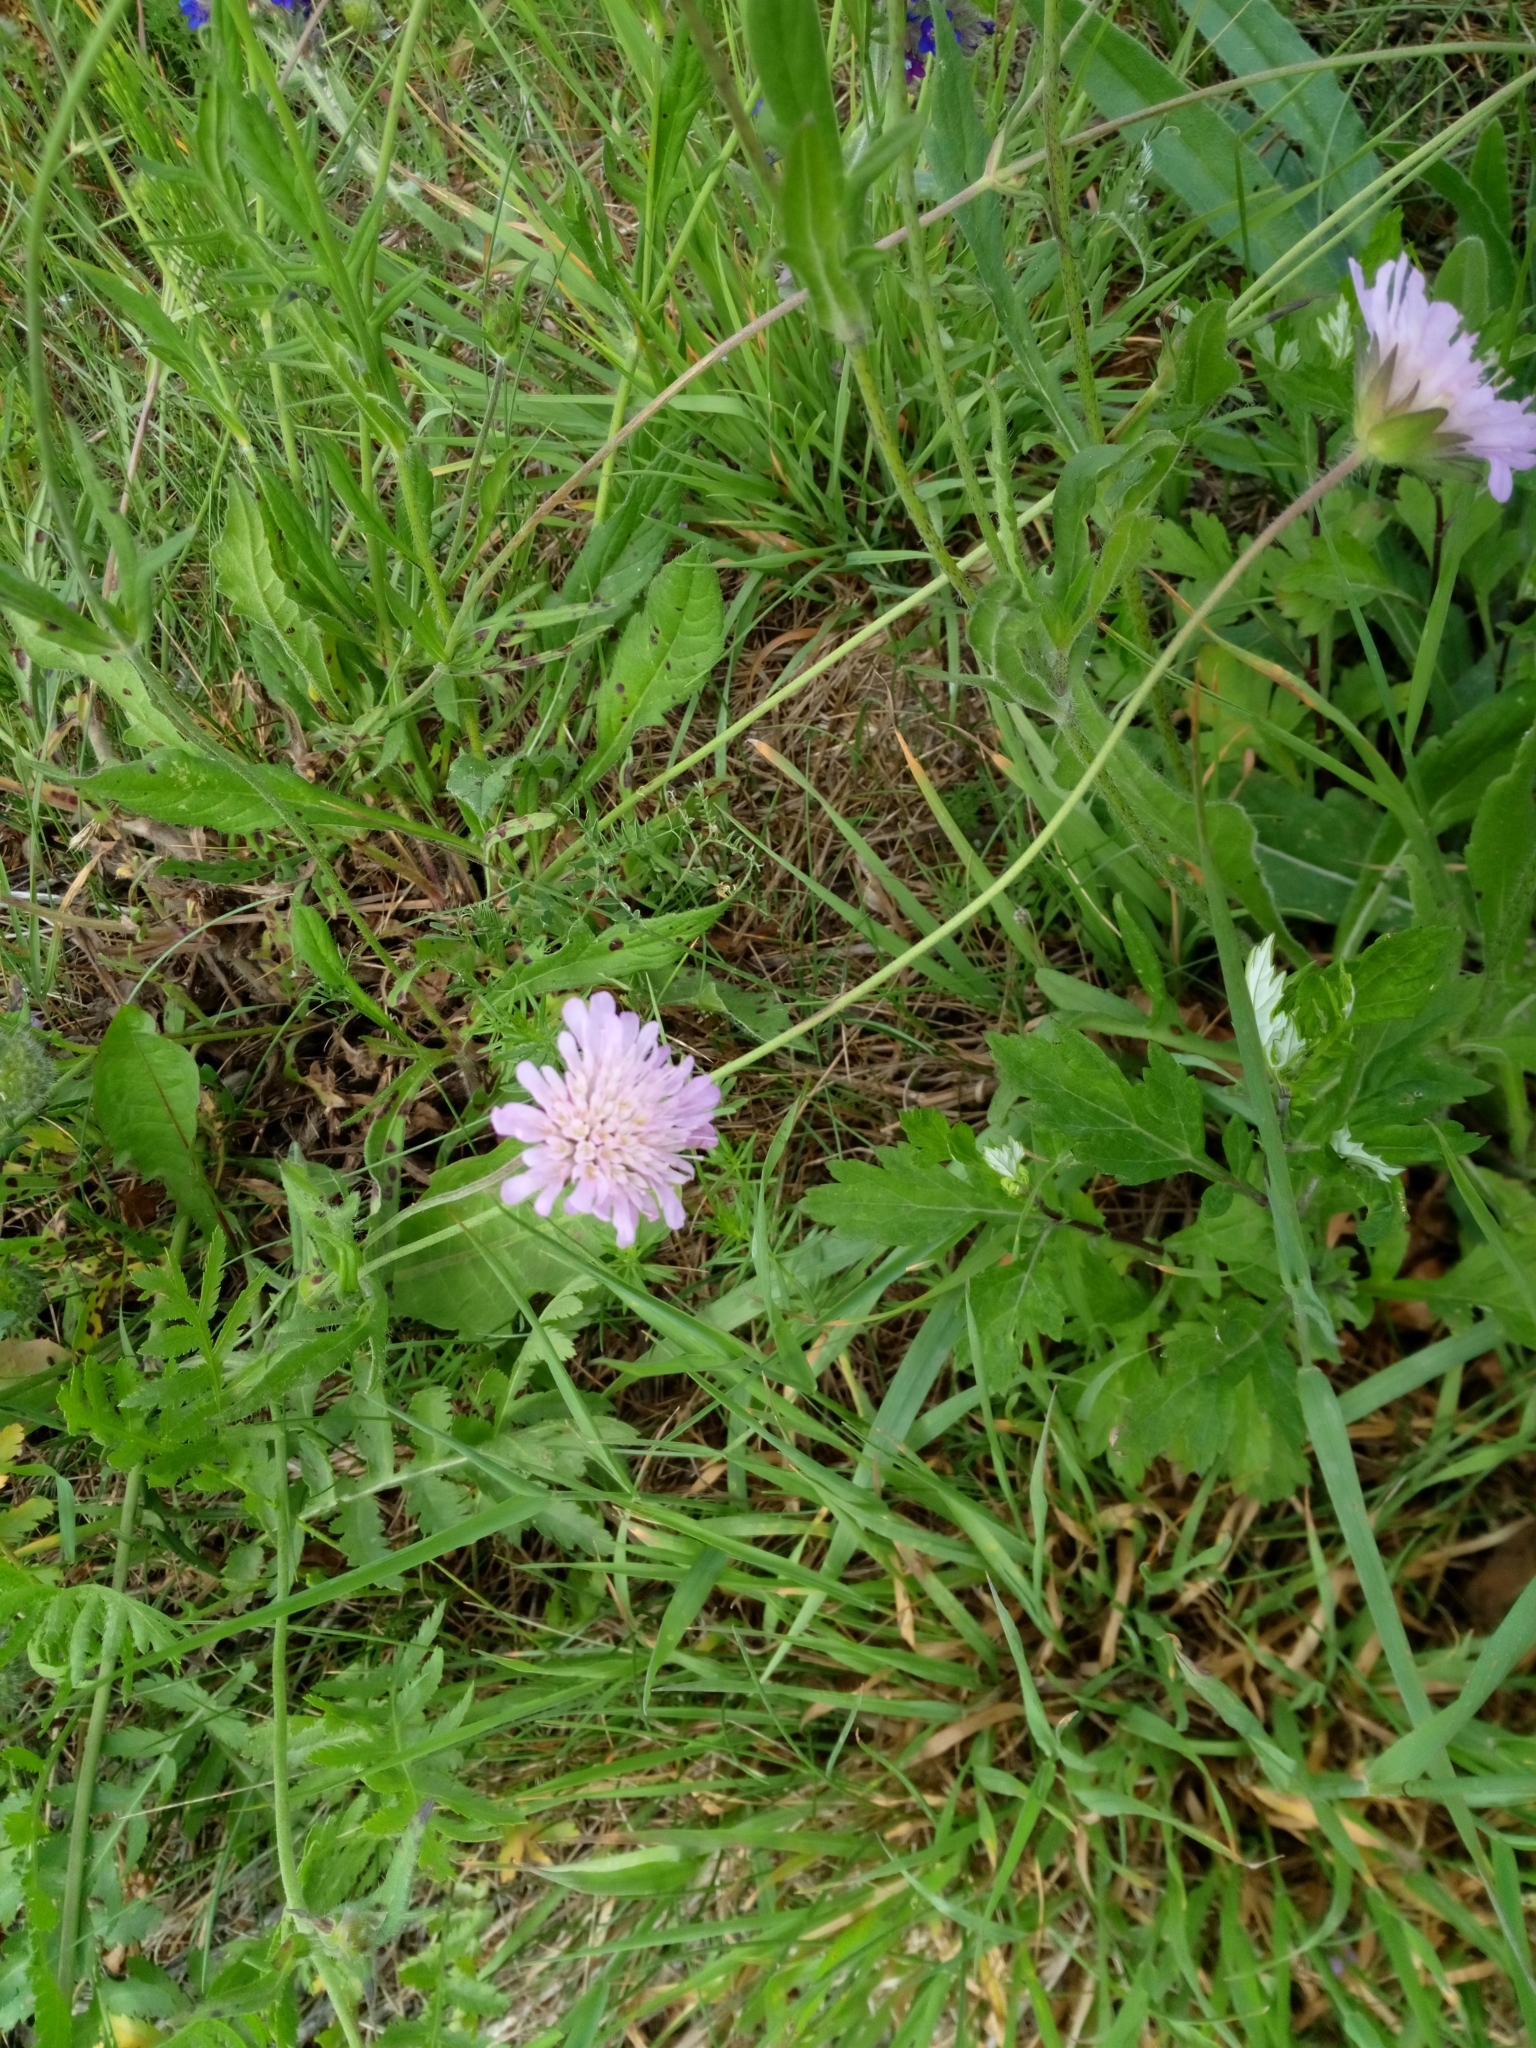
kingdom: Plantae
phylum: Tracheophyta
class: Magnoliopsida
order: Dipsacales
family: Caprifoliaceae
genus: Knautia
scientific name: Knautia arvensis
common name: Field scabiosa
